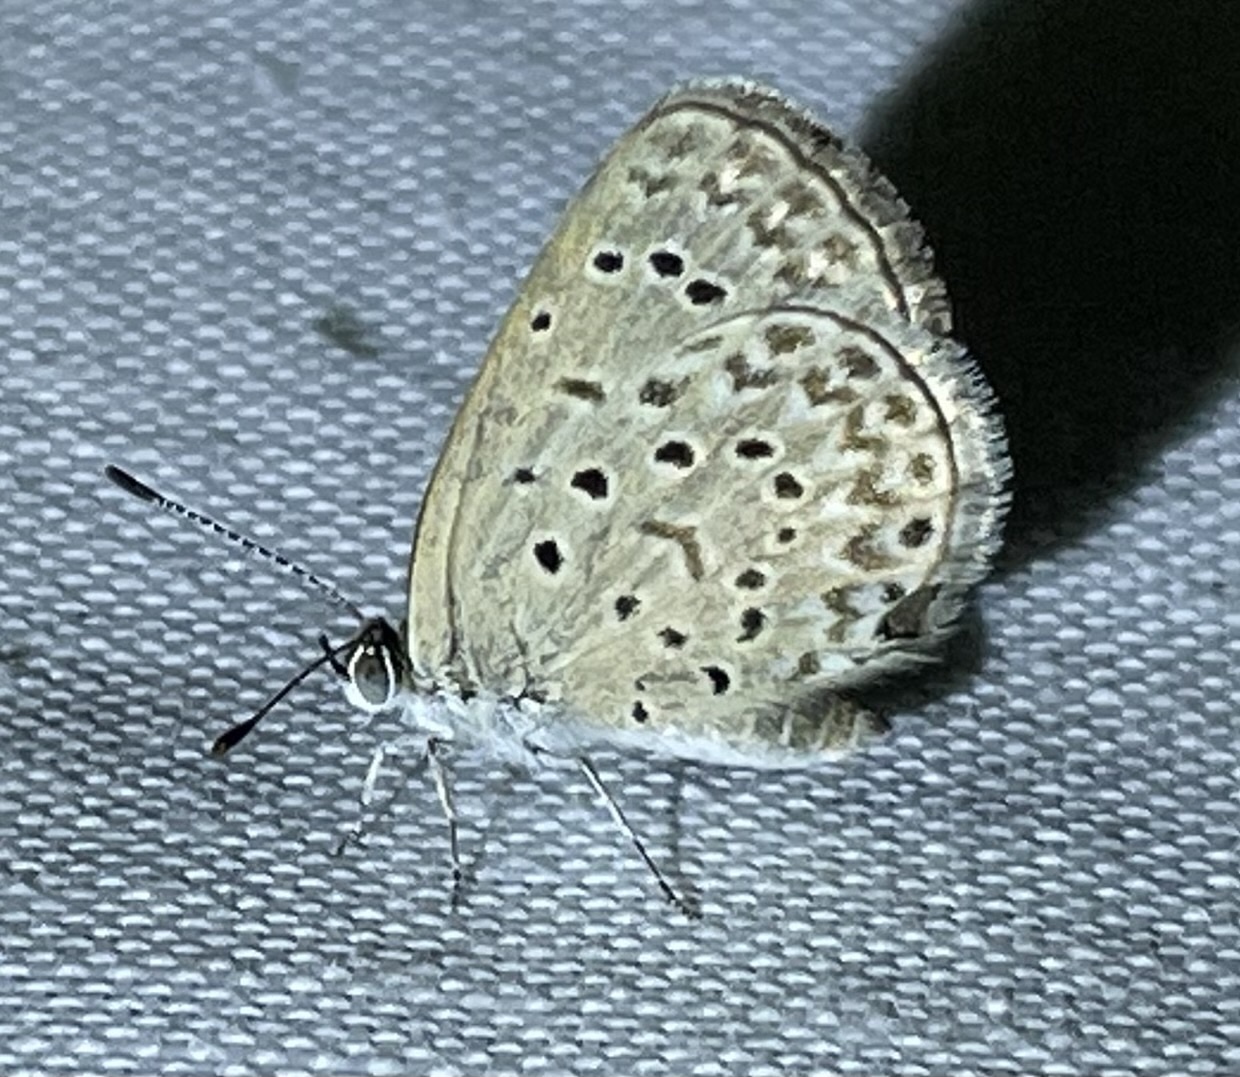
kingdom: Animalia
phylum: Arthropoda
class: Insecta
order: Lepidoptera
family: Lycaenidae
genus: Zizeeria
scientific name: Zizeeria knysna
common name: African grass blue
